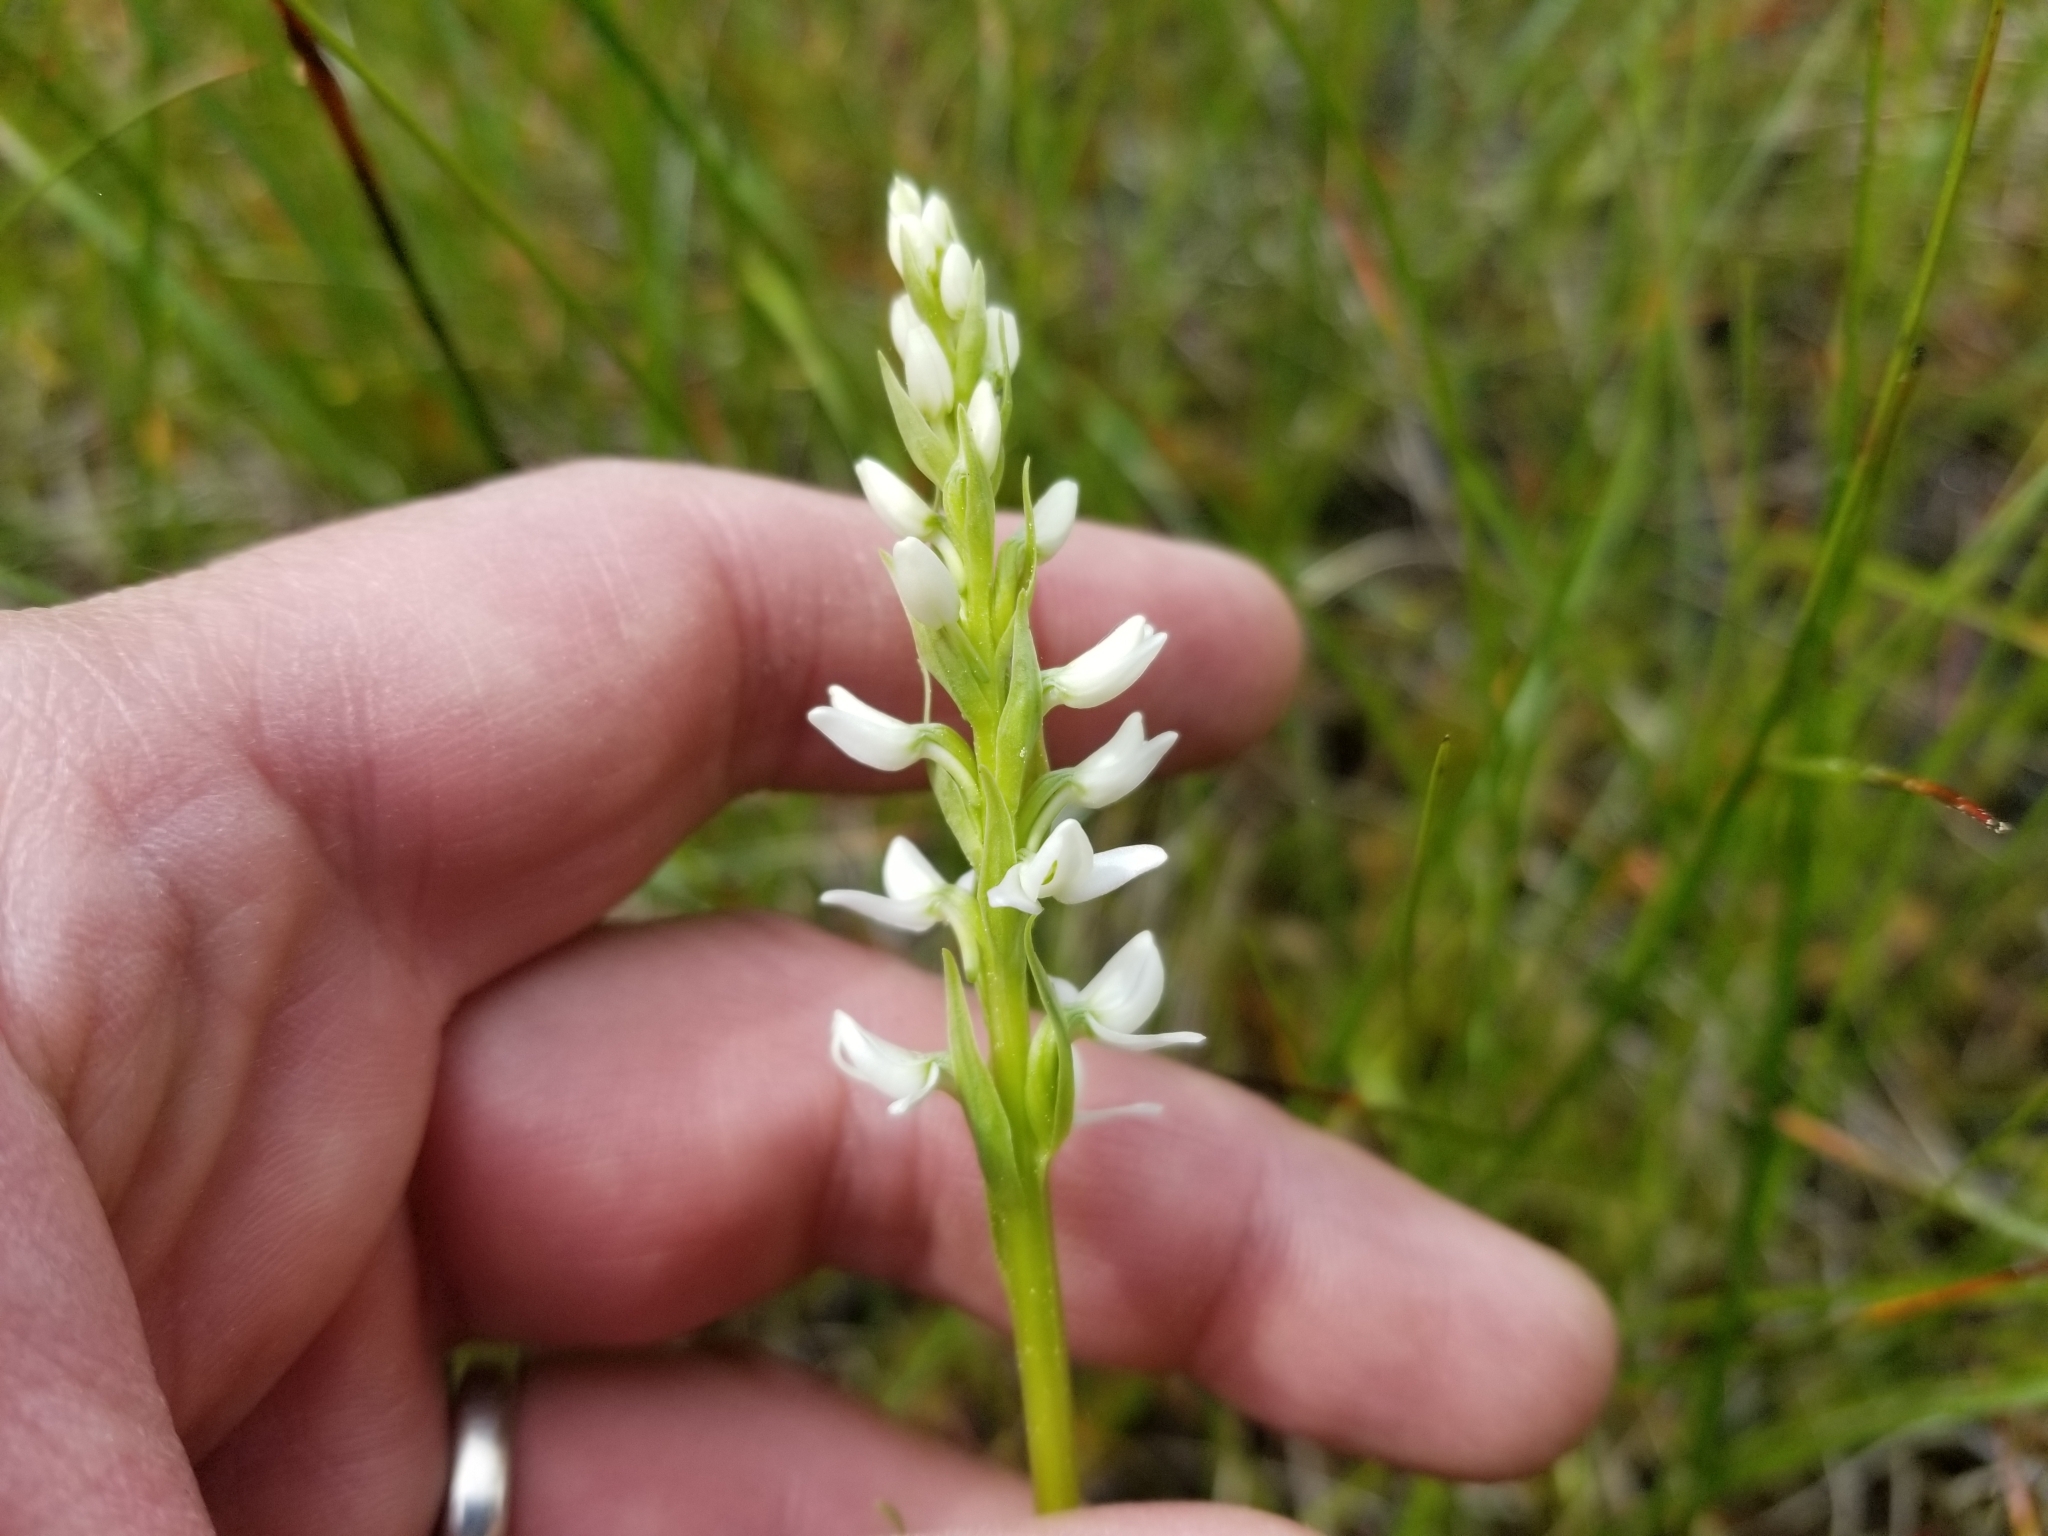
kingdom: Plantae
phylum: Tracheophyta
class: Liliopsida
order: Asparagales
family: Orchidaceae
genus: Platanthera
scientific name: Platanthera dilatata
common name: Bog candles
